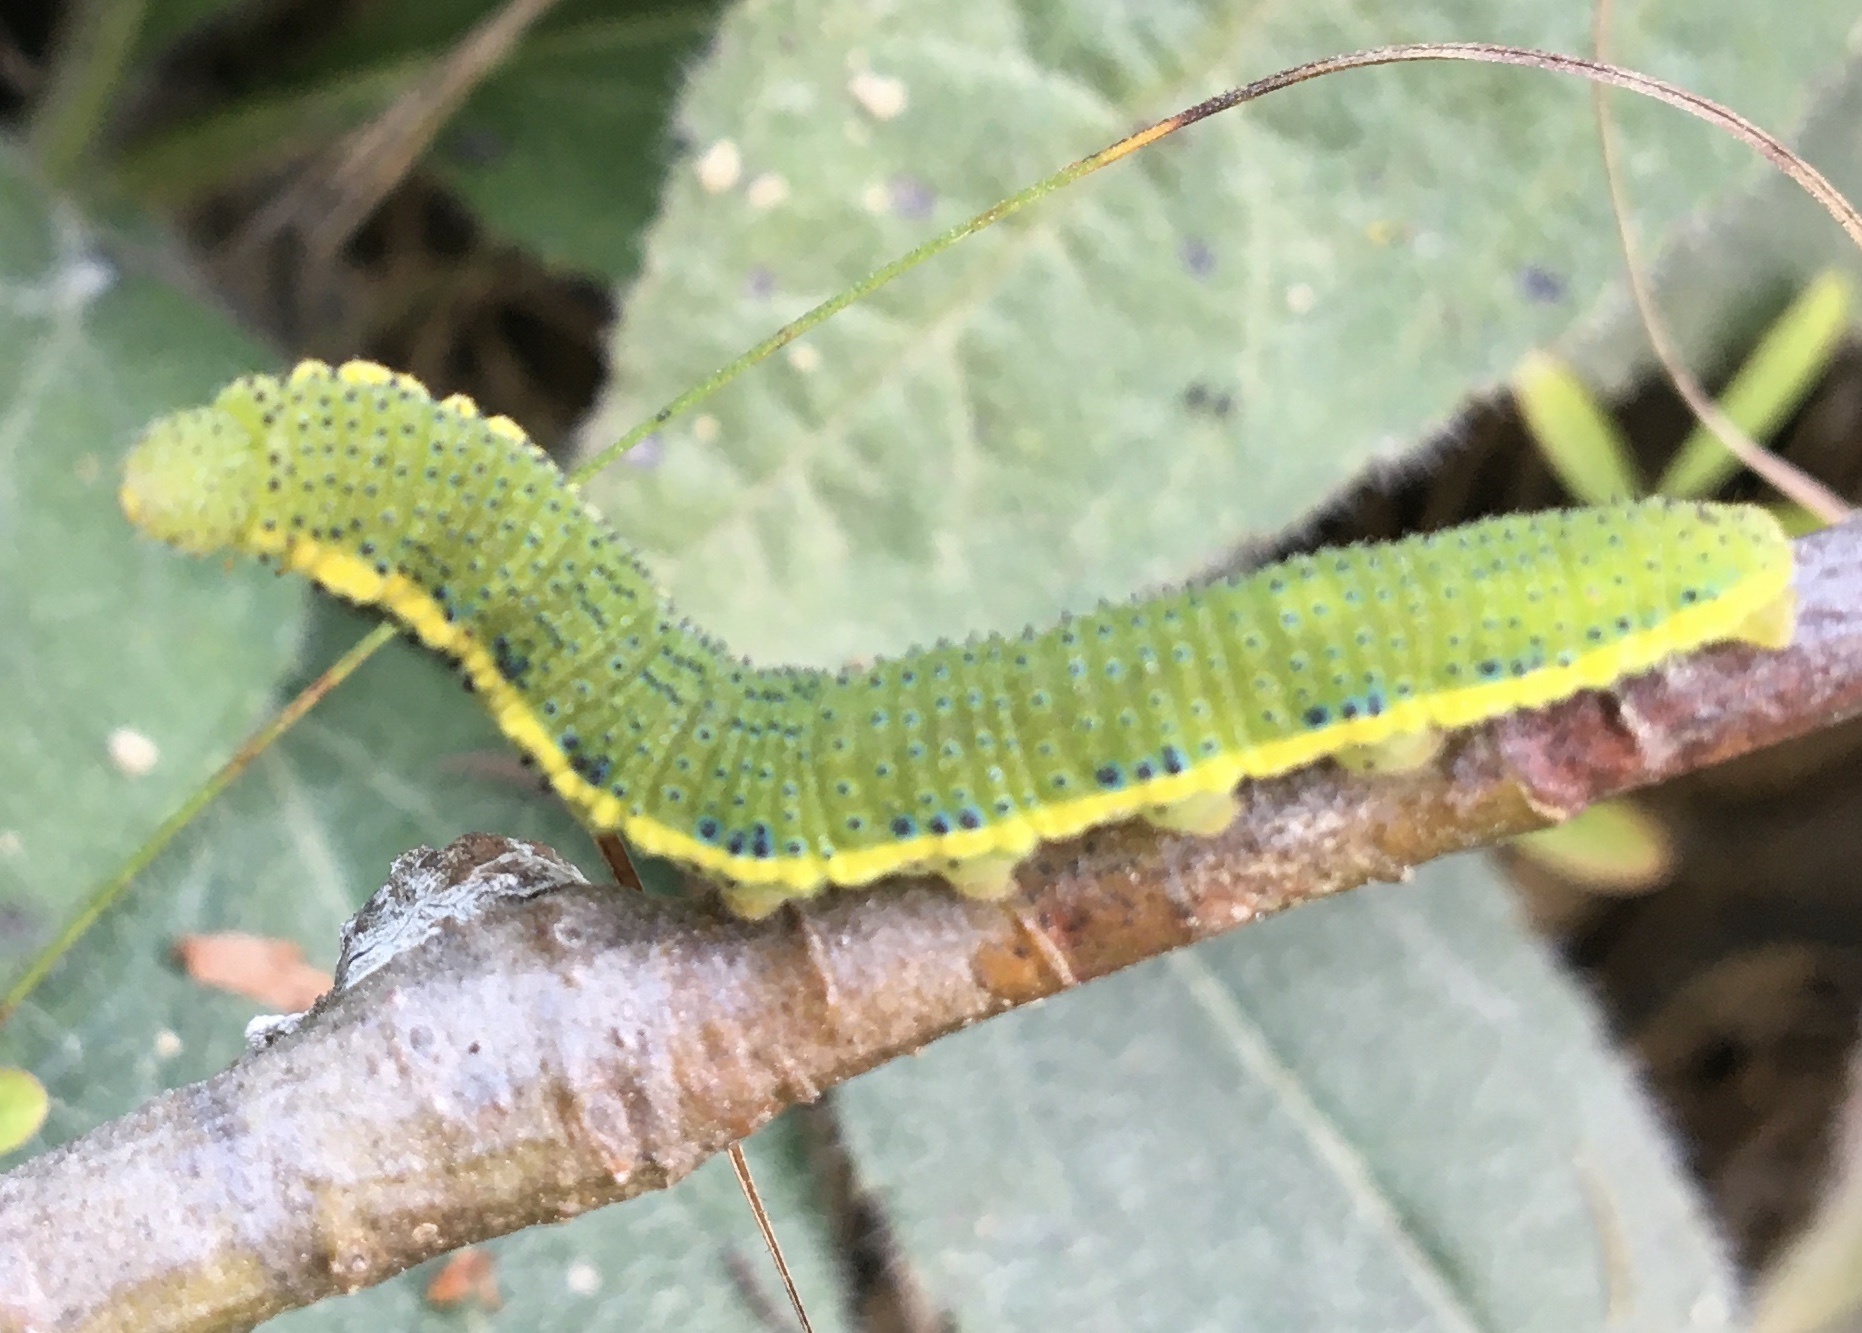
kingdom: Animalia
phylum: Arthropoda
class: Insecta
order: Lepidoptera
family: Pieridae
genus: Phoebis
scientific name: Phoebis sennae
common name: Cloudless sulphur
